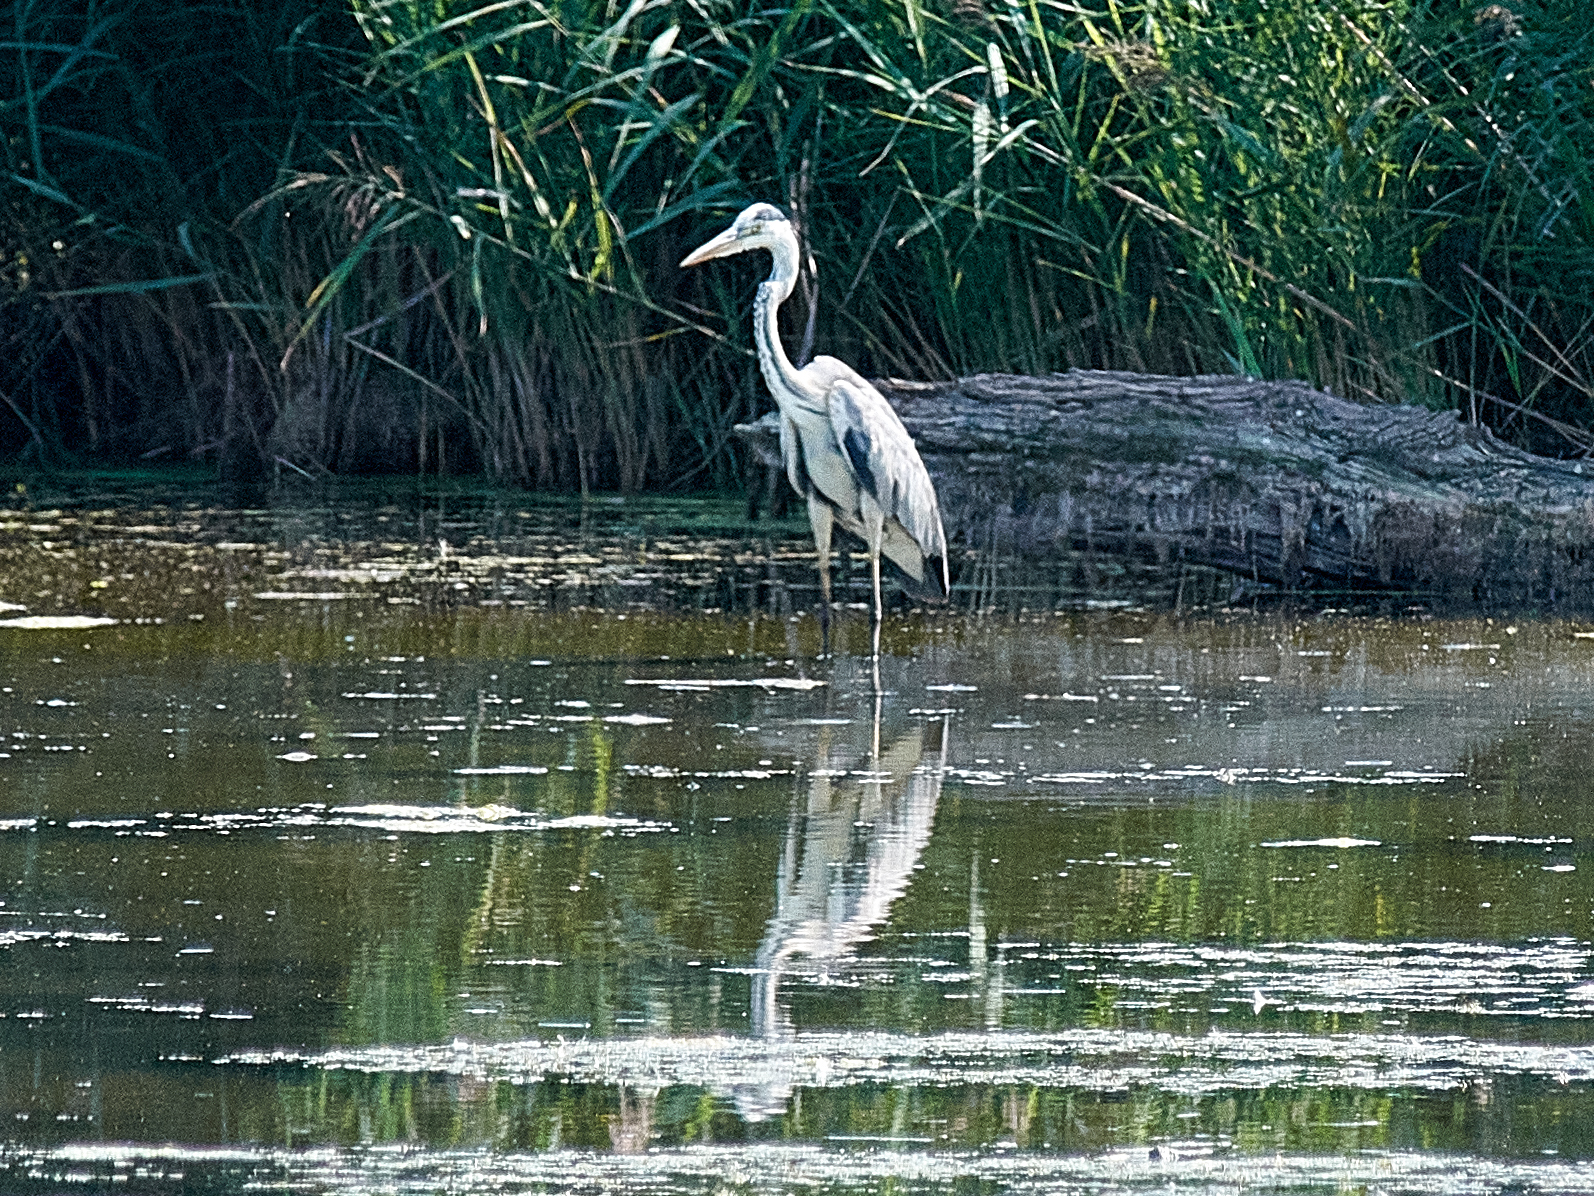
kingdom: Animalia
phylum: Chordata
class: Aves
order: Pelecaniformes
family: Ardeidae
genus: Ardea
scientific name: Ardea cinerea
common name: Grey heron
